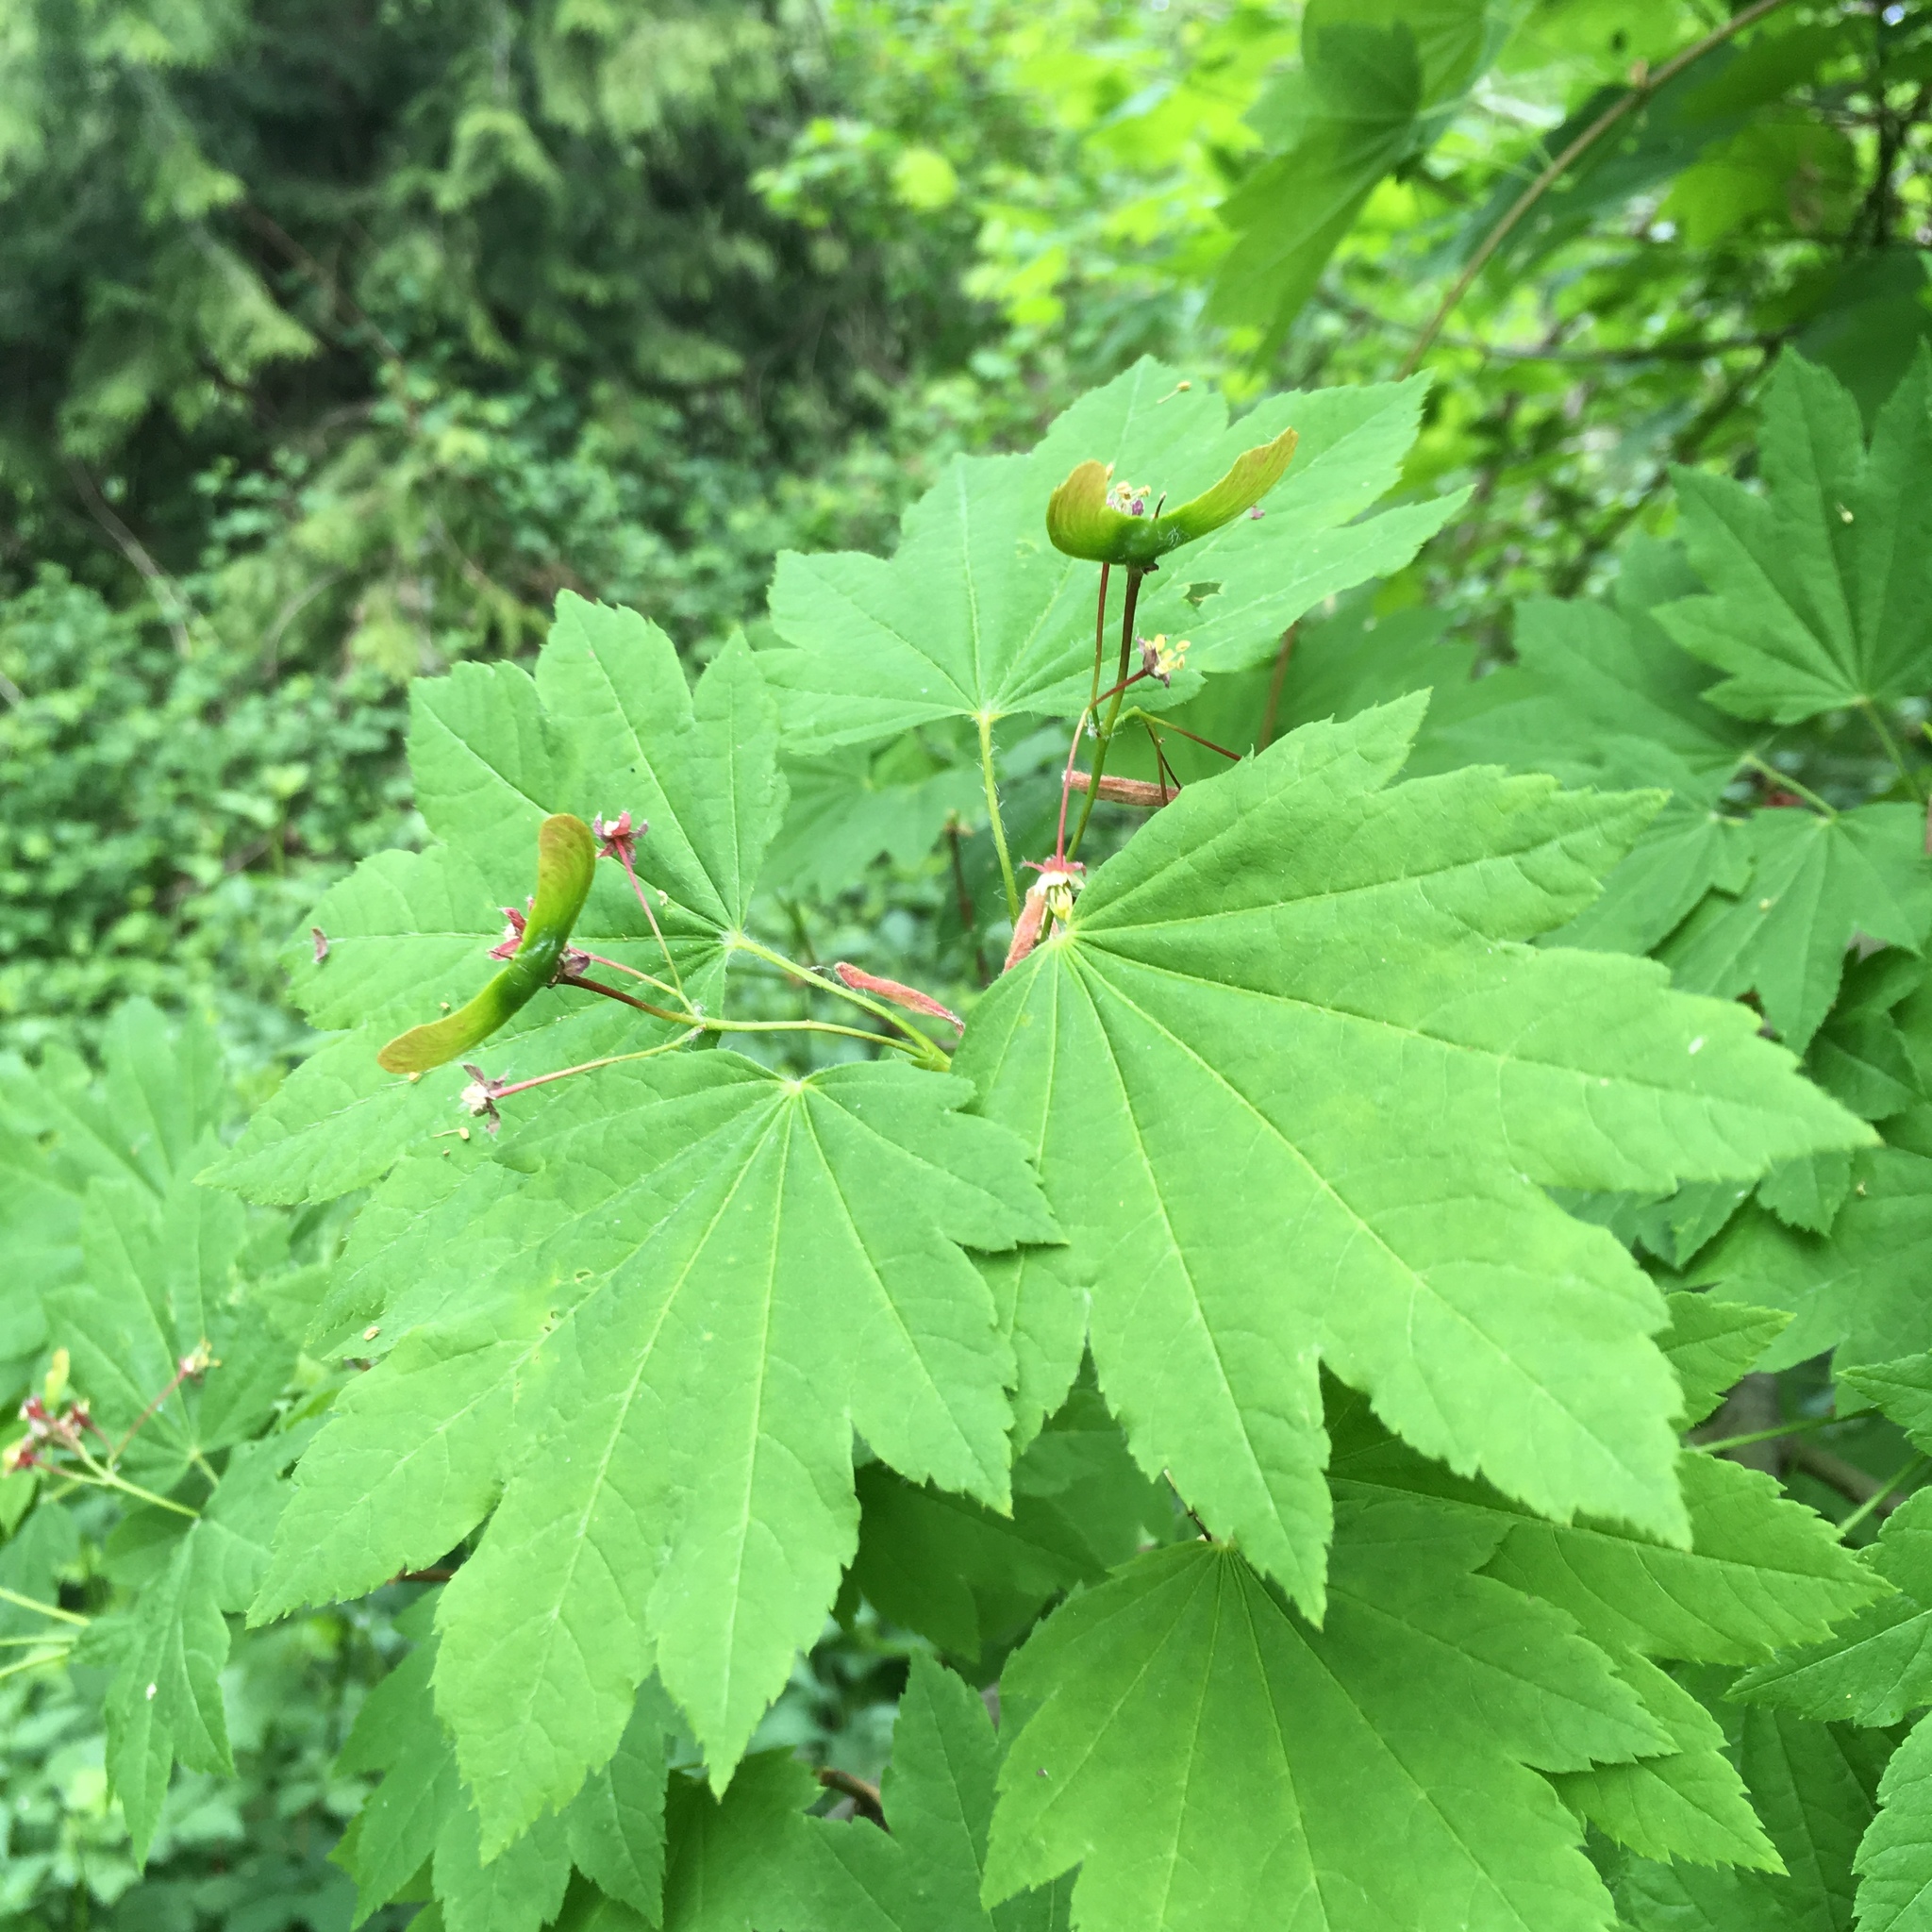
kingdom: Plantae
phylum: Tracheophyta
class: Magnoliopsida
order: Sapindales
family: Sapindaceae
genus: Acer
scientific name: Acer circinatum
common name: Vine maple
